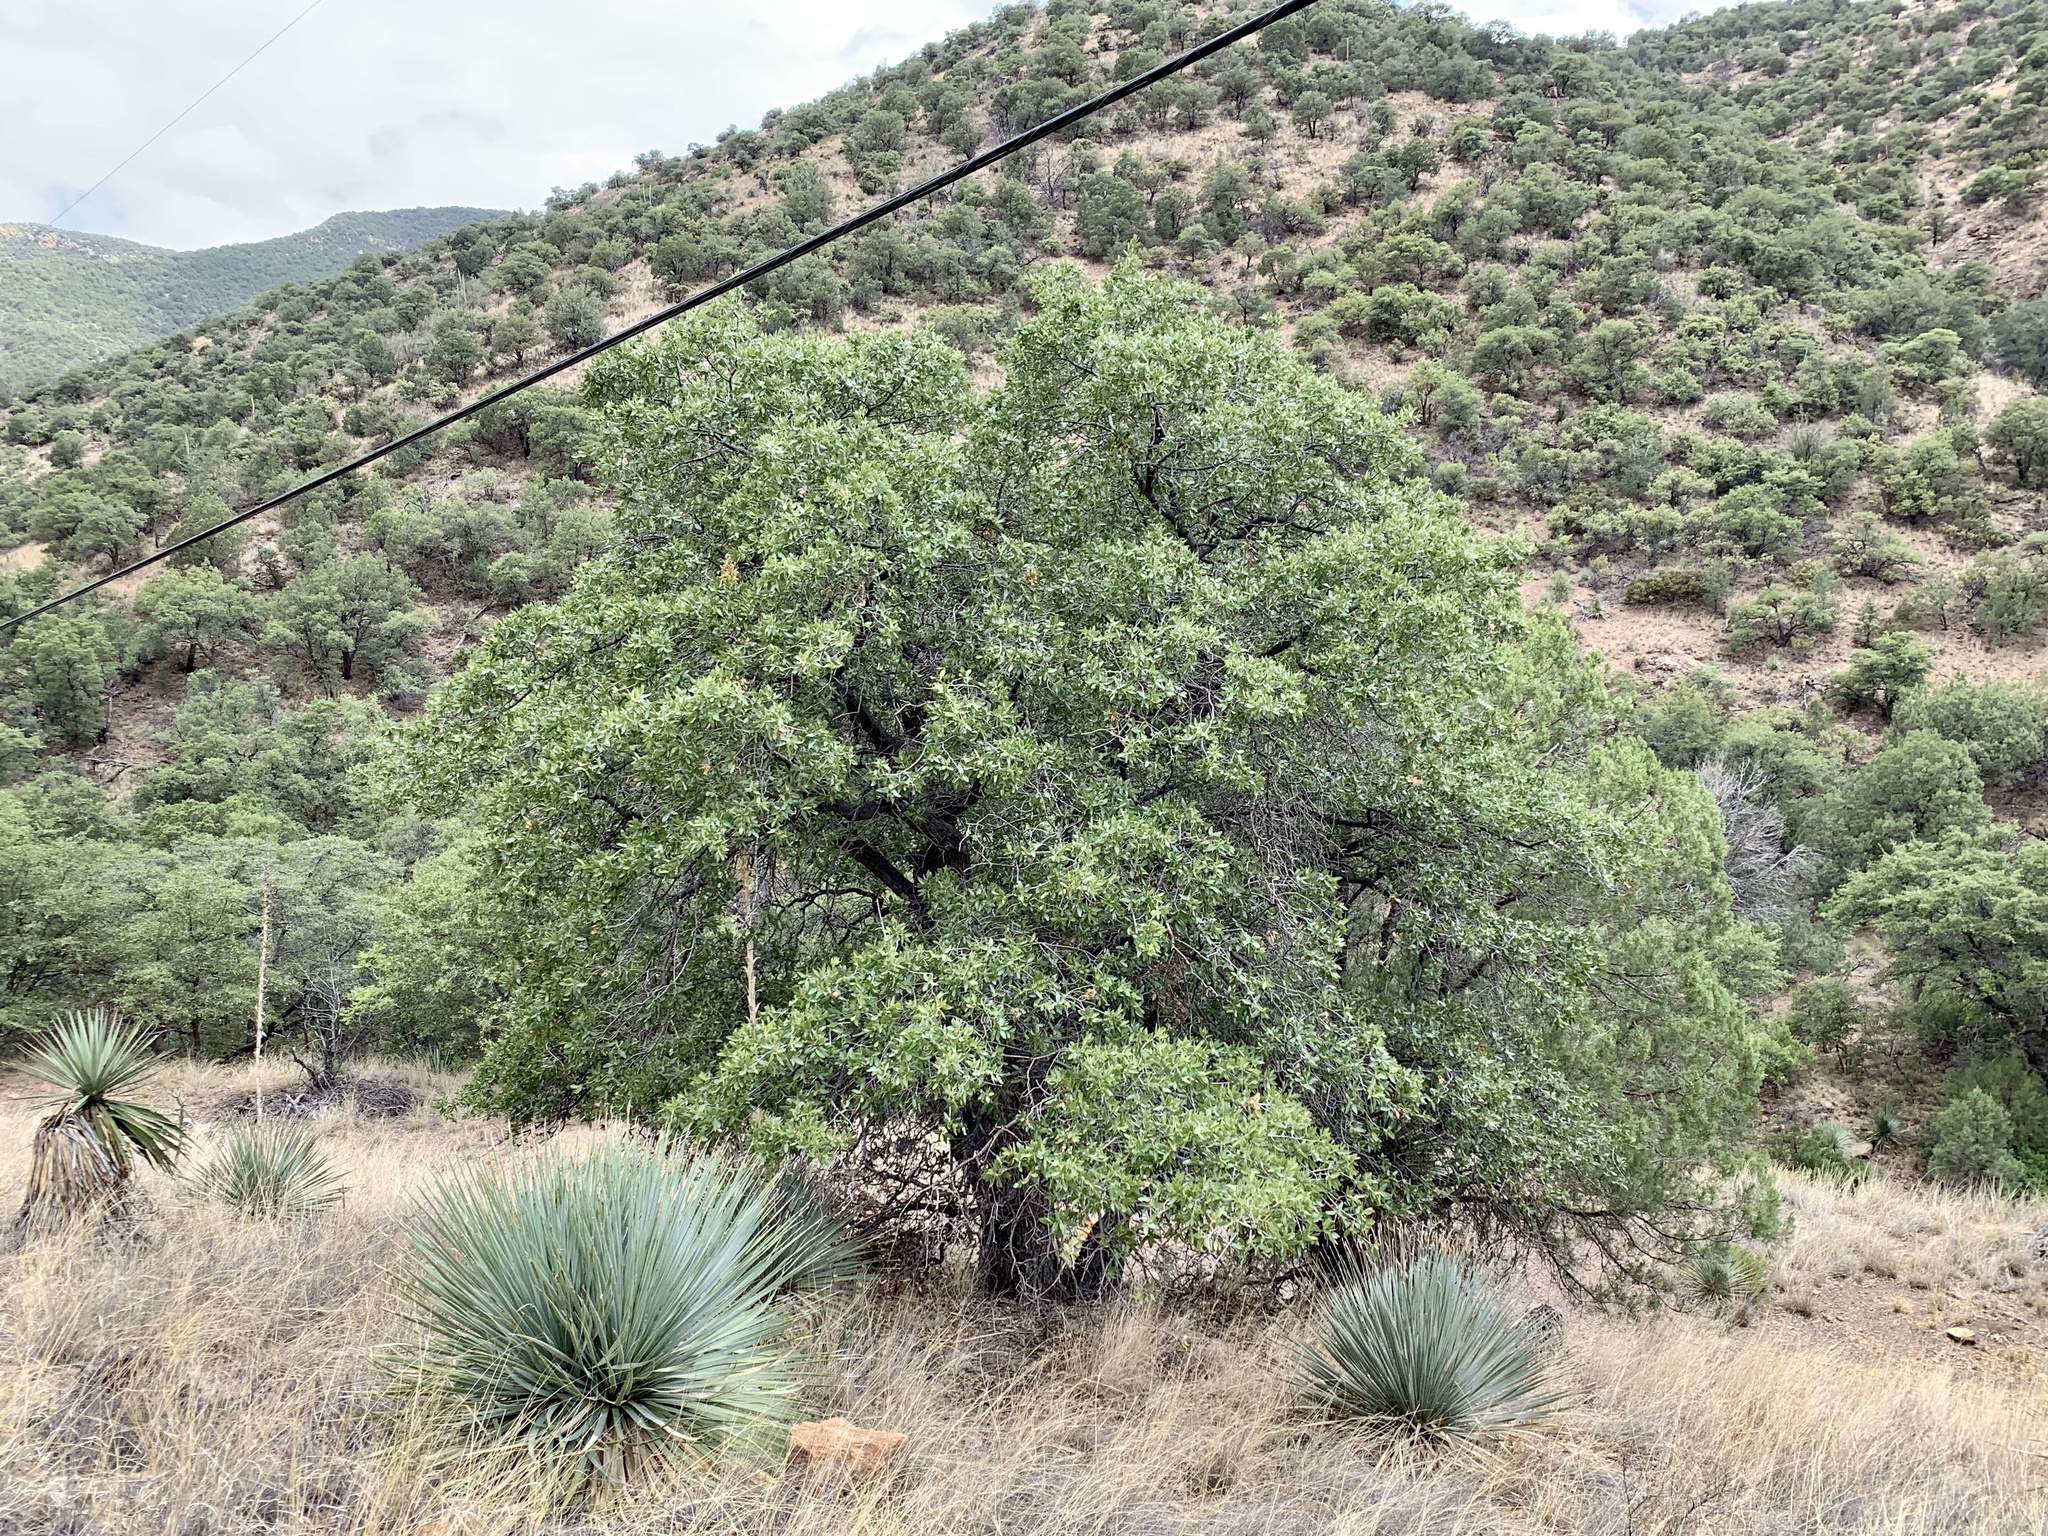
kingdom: Plantae
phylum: Tracheophyta
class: Magnoliopsida
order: Fagales
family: Fagaceae
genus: Quercus
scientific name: Quercus emoryi
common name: Emory oak
